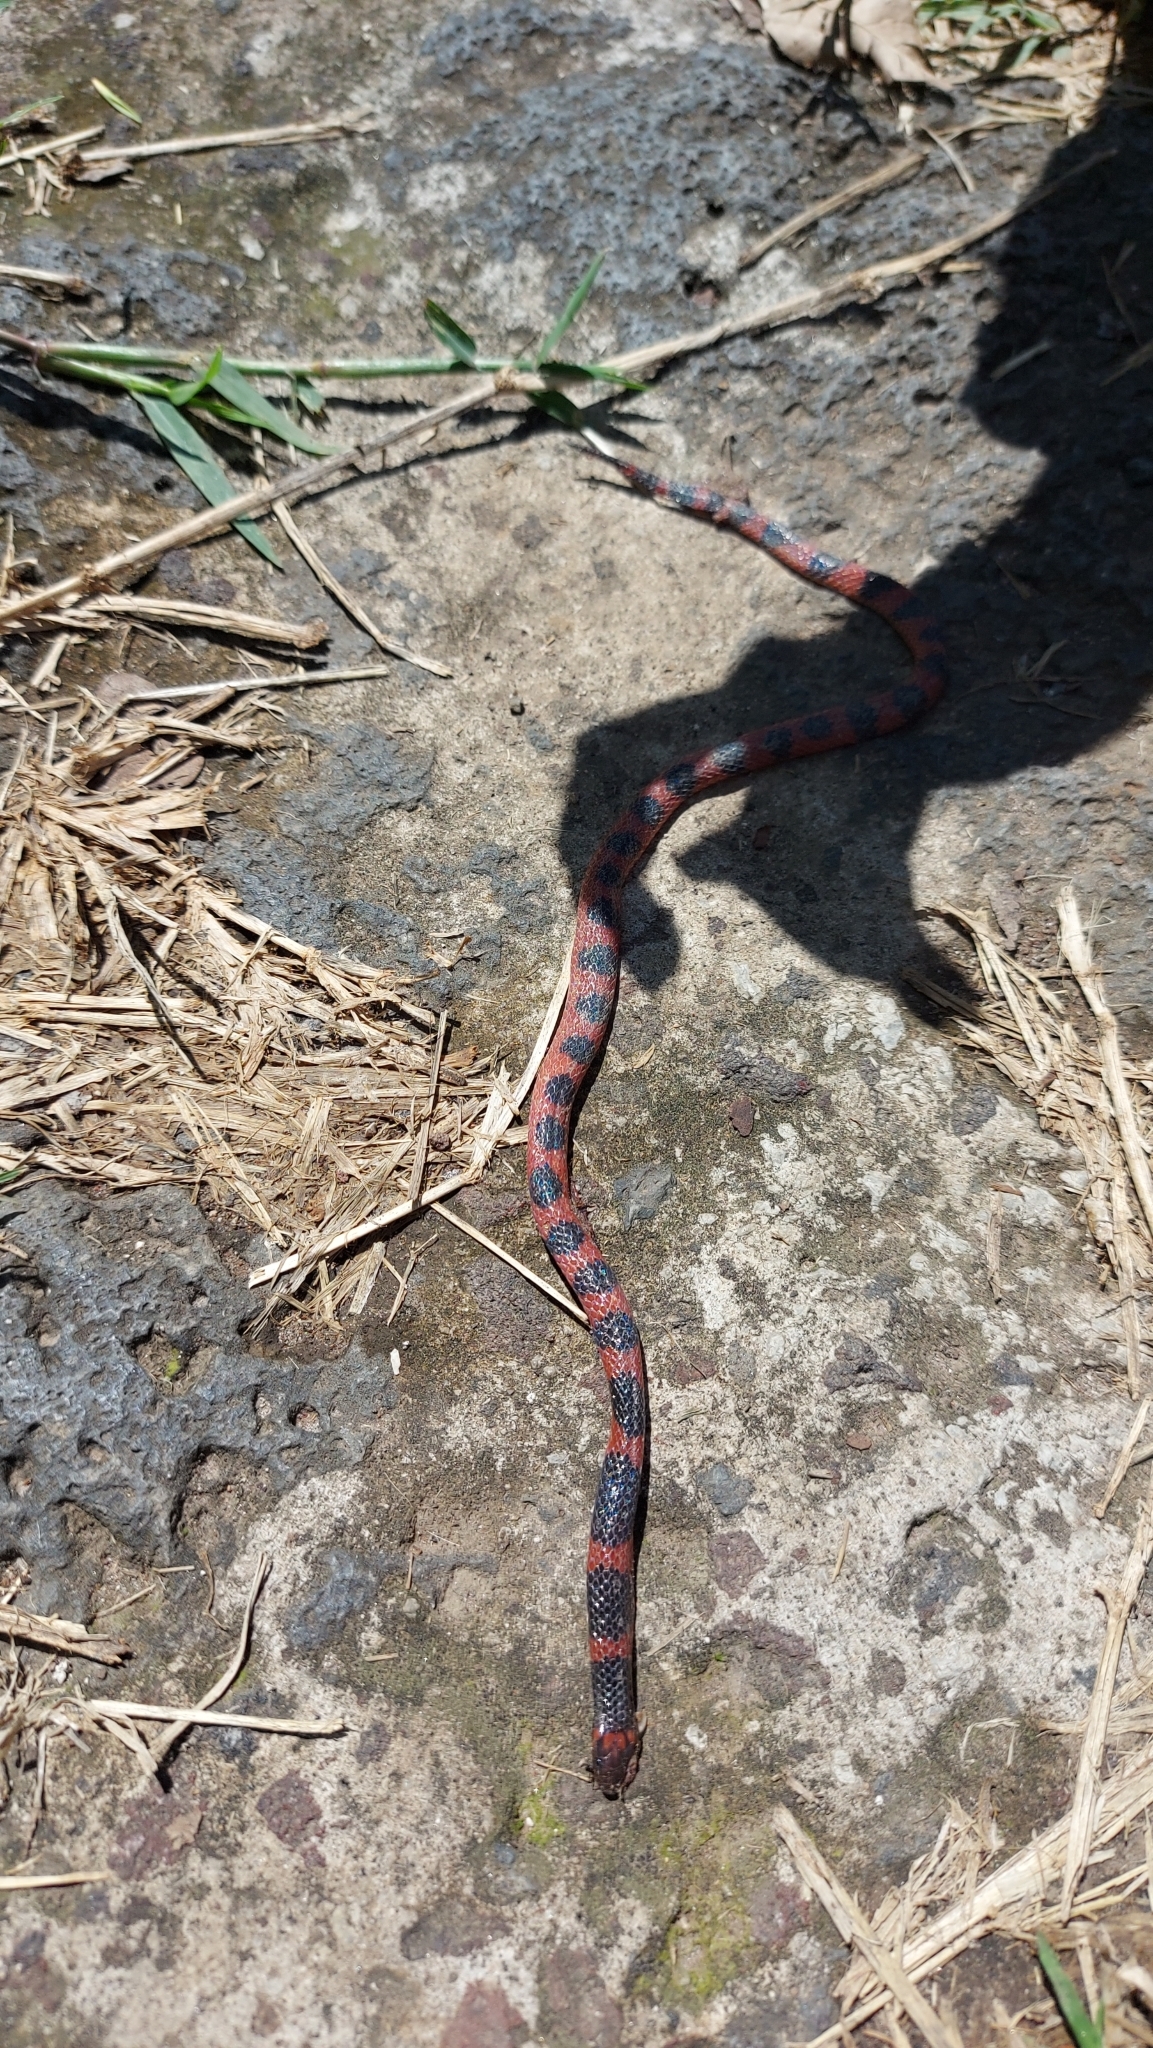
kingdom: Animalia
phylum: Chordata
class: Squamata
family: Colubridae
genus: Geophis
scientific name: Geophis semidoliatus
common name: Coral earth snake
